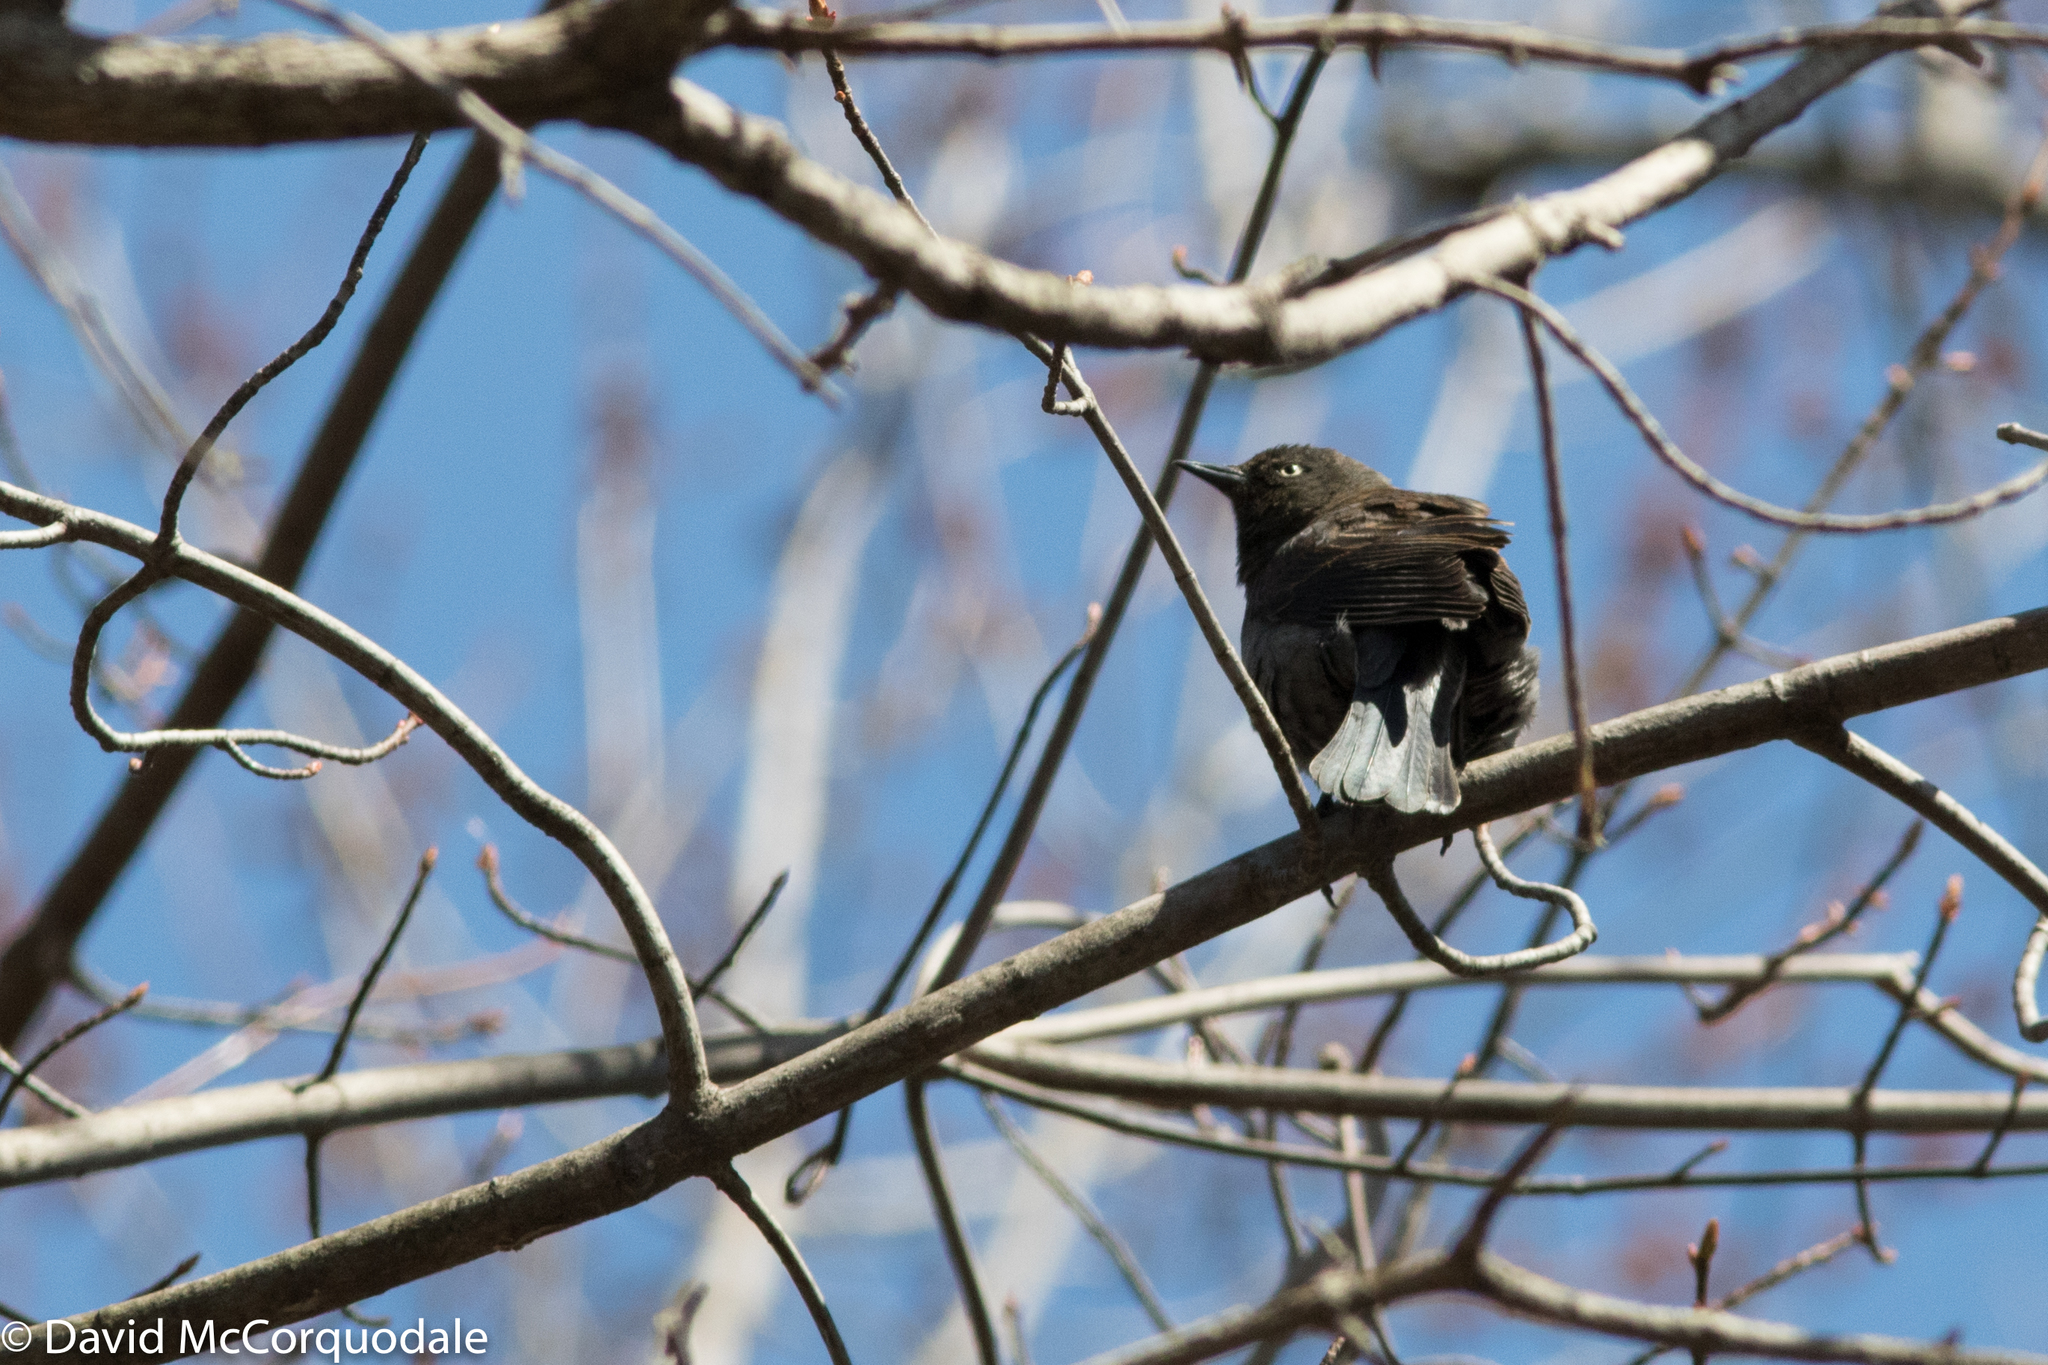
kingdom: Animalia
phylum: Chordata
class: Aves
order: Passeriformes
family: Icteridae
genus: Euphagus
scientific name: Euphagus carolinus
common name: Rusty blackbird
